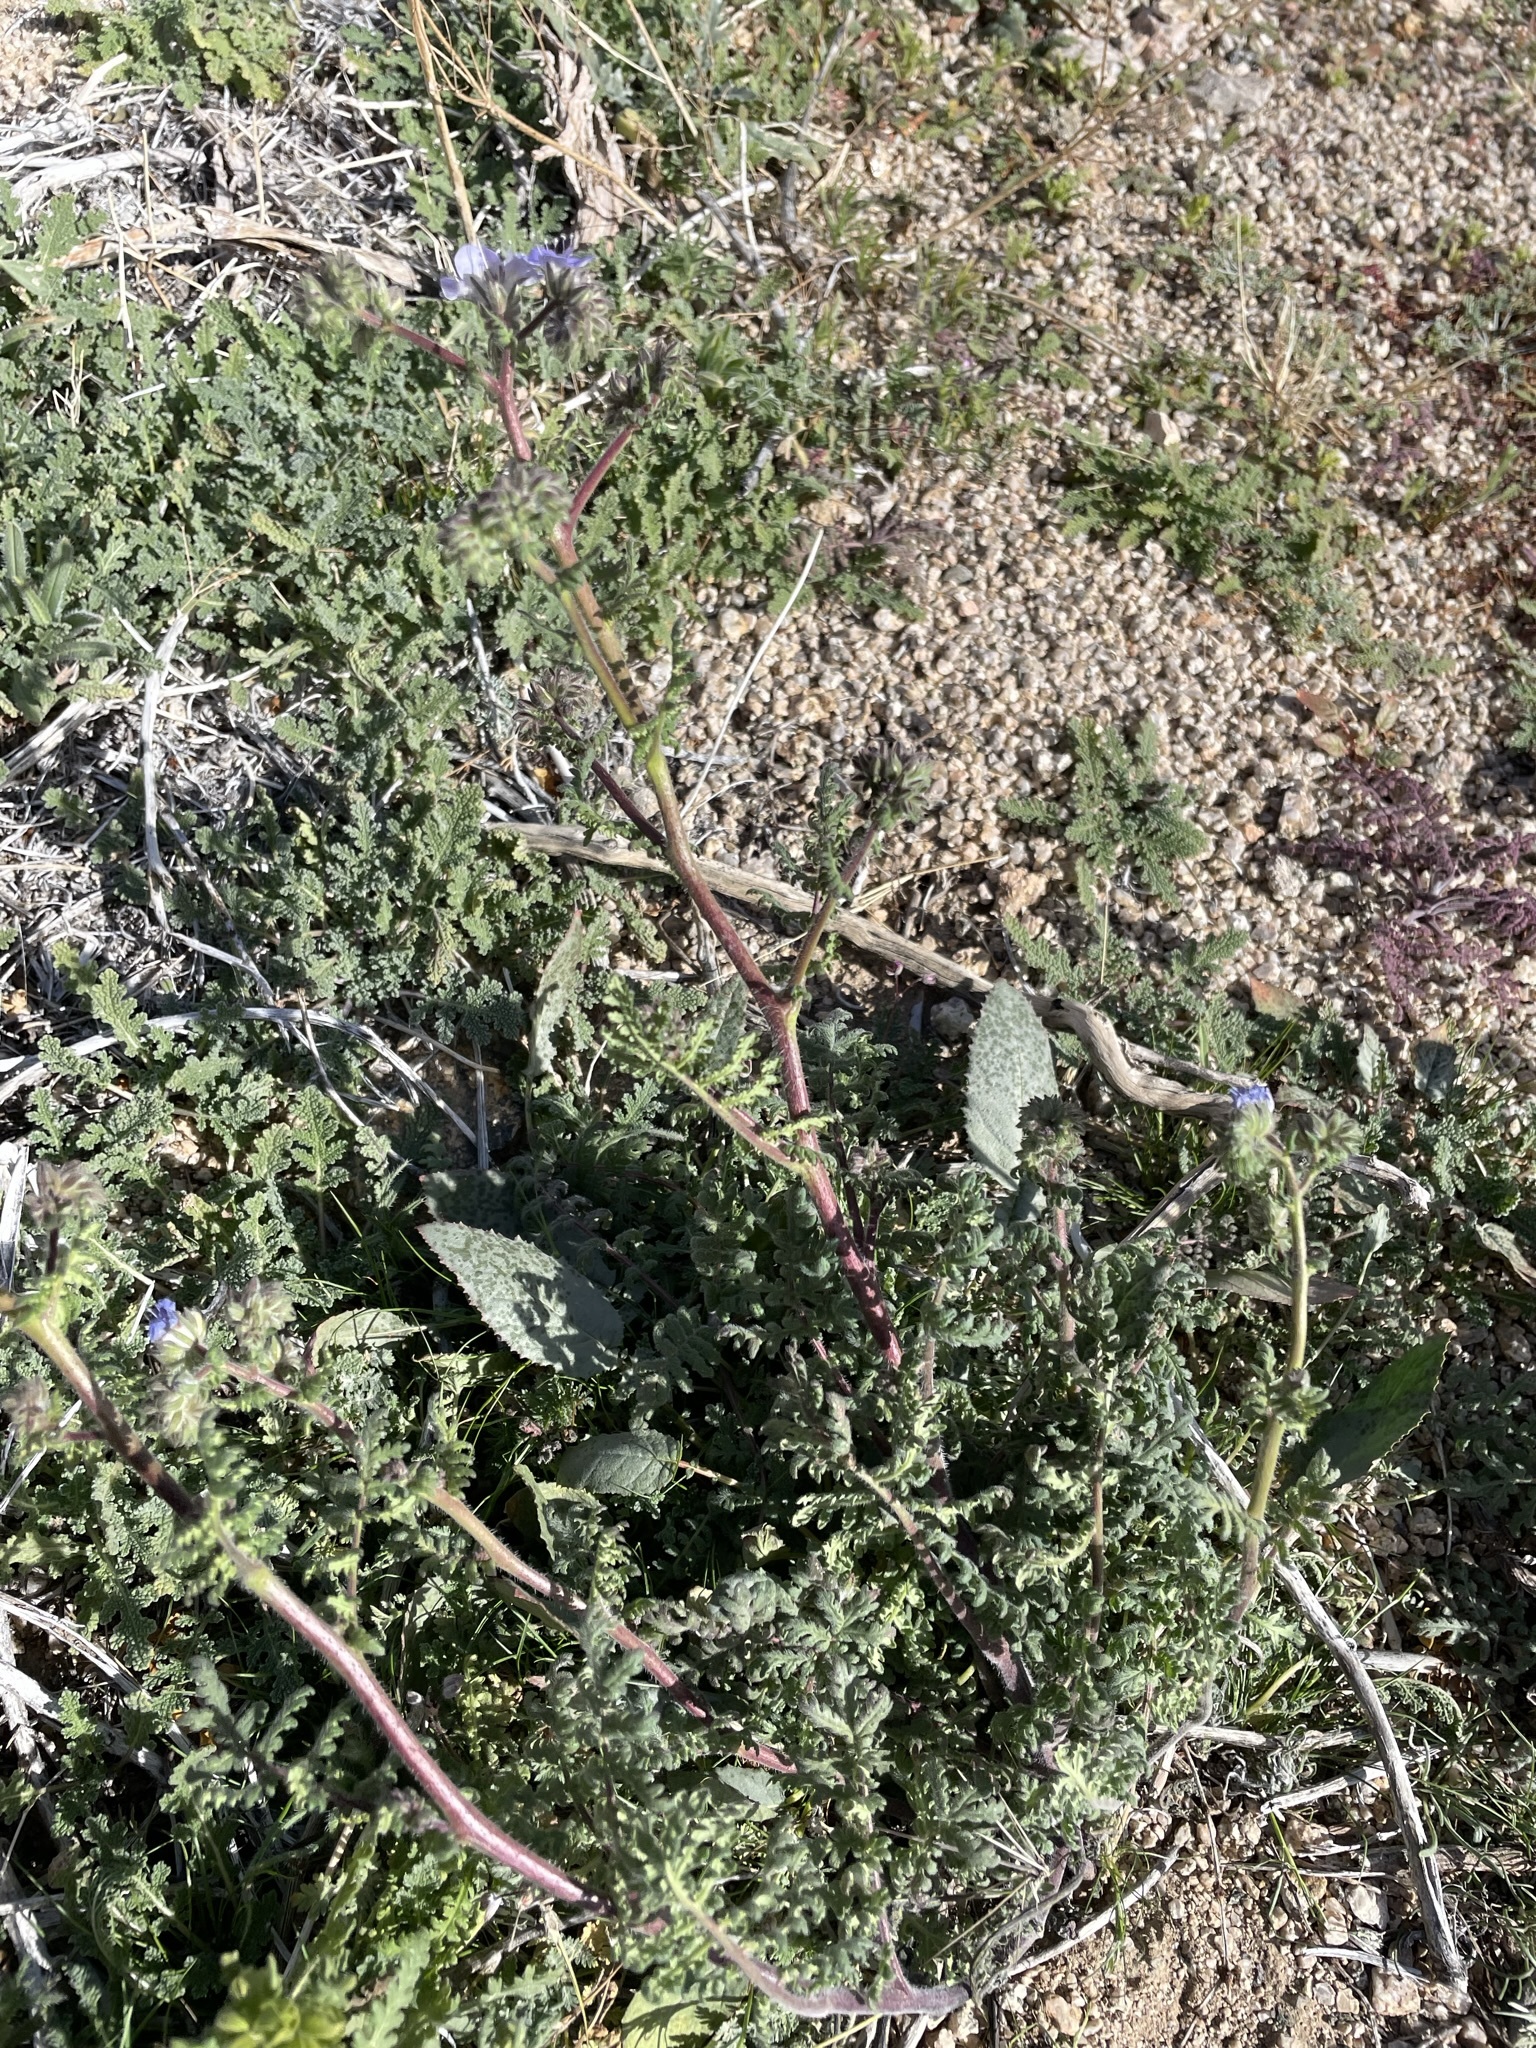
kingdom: Plantae
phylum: Tracheophyta
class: Magnoliopsida
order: Boraginales
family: Hydrophyllaceae
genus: Phacelia
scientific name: Phacelia distans
